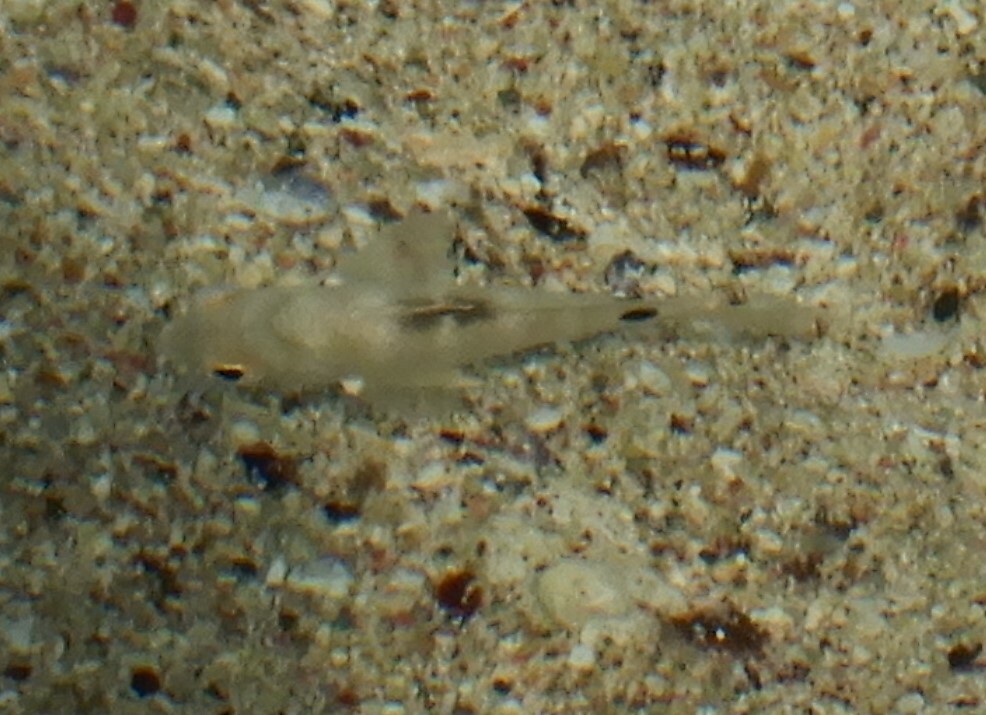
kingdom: Animalia
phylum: Chordata
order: Perciformes
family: Pomacentridae
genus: Abudefduf
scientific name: Abudefduf sordidus
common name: Blackspot sergeant
